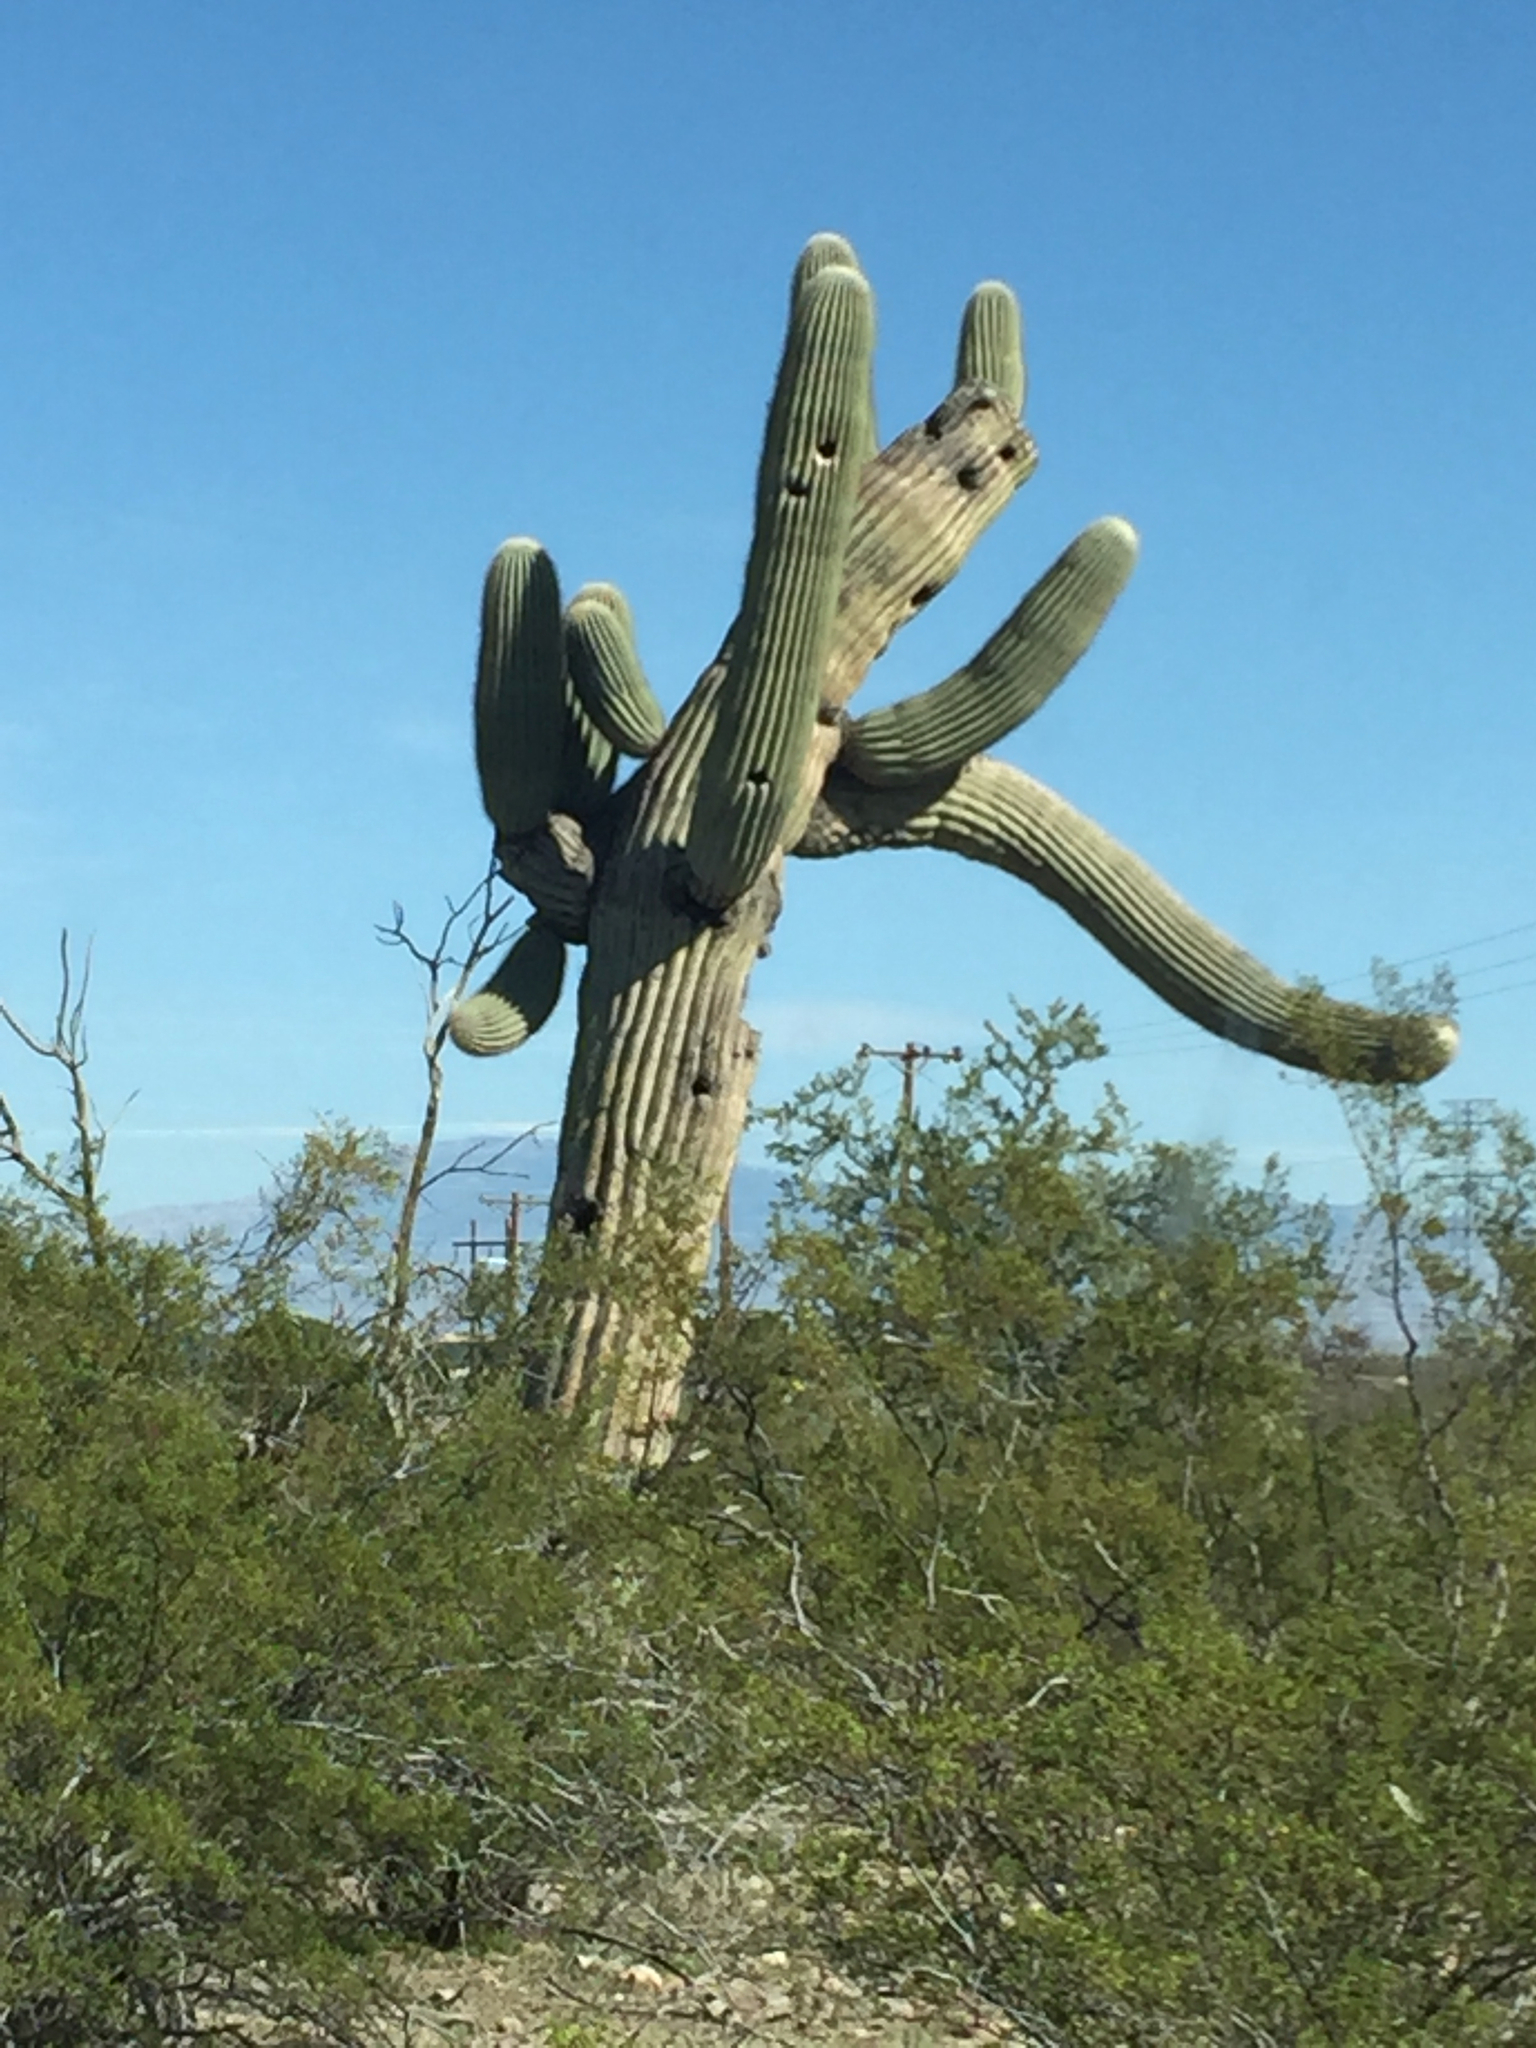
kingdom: Plantae
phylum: Tracheophyta
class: Magnoliopsida
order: Caryophyllales
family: Cactaceae
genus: Carnegiea
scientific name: Carnegiea gigantea
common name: Saguaro
